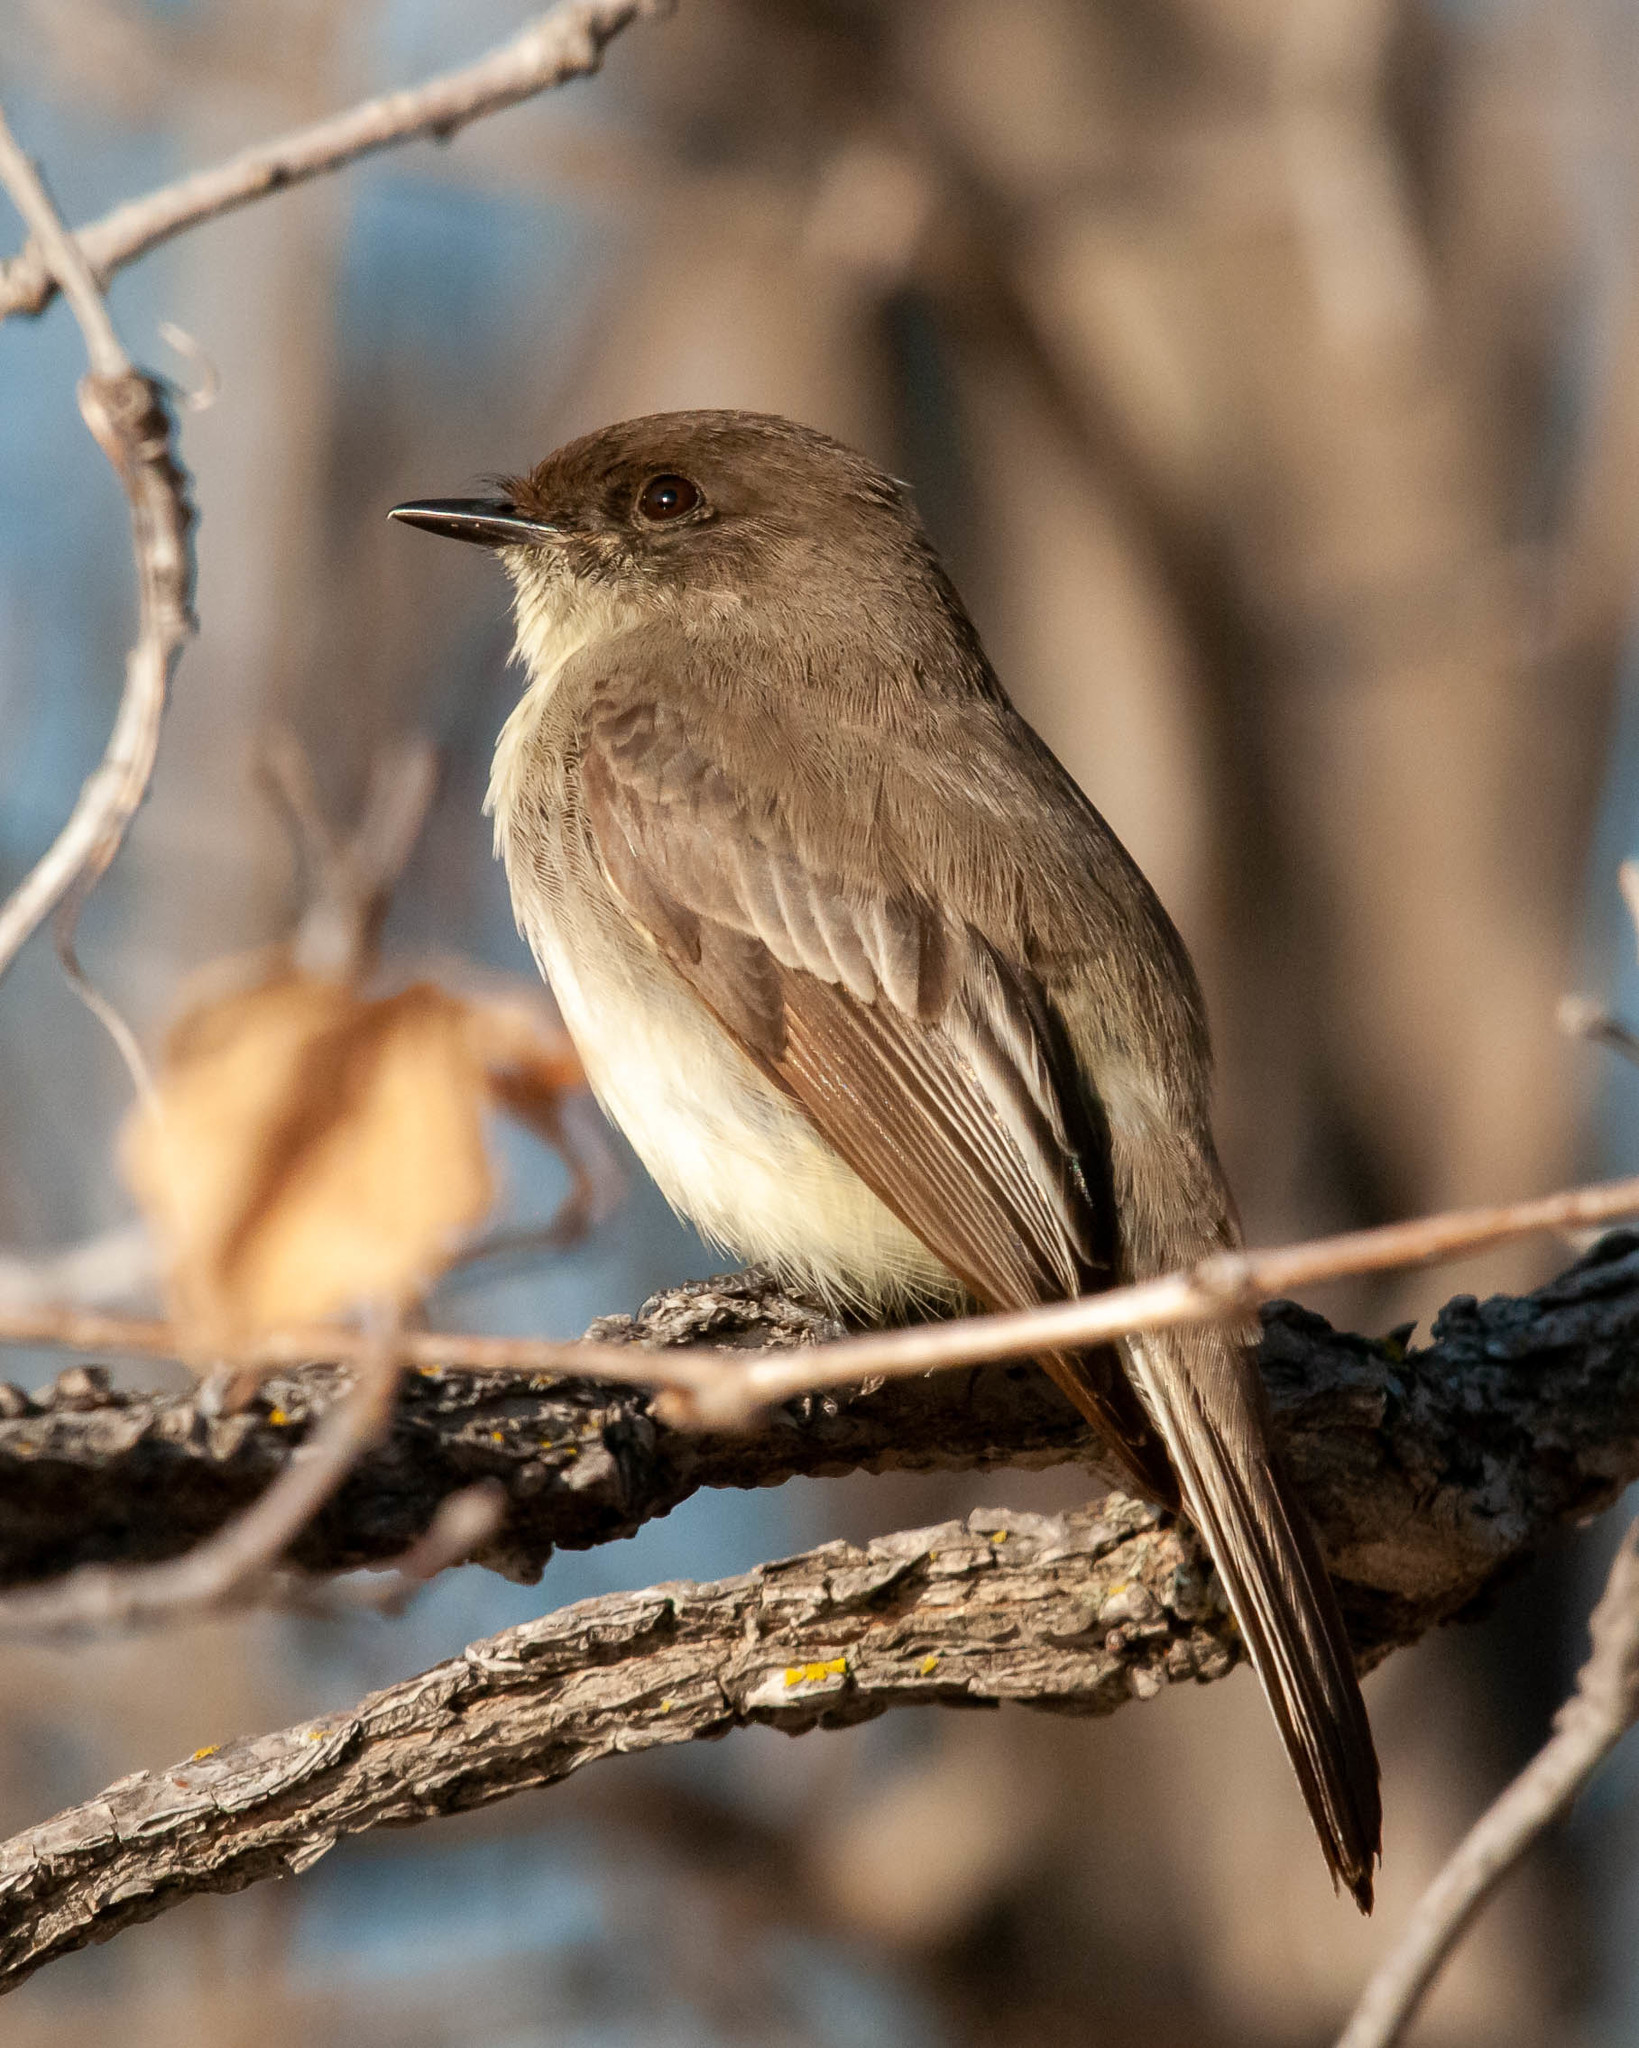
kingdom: Animalia
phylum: Chordata
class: Aves
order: Passeriformes
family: Tyrannidae
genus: Sayornis
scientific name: Sayornis phoebe
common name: Eastern phoebe
